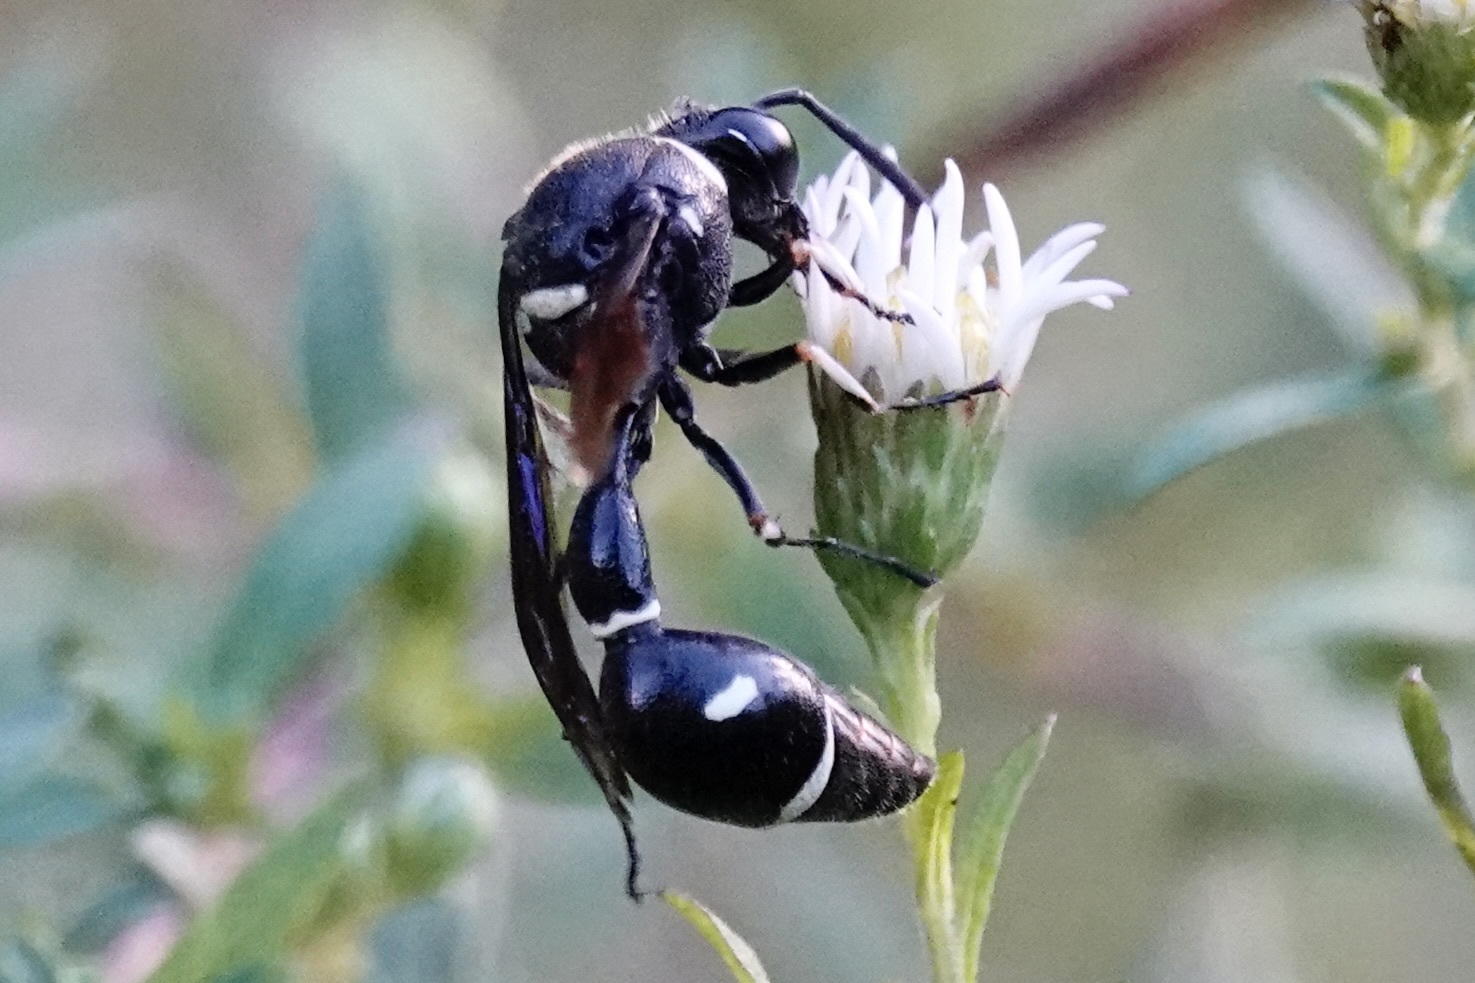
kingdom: Animalia
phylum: Arthropoda
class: Insecta
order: Hymenoptera
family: Vespidae
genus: Eumenes
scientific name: Eumenes fraternus
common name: Fraternal potter wasp
